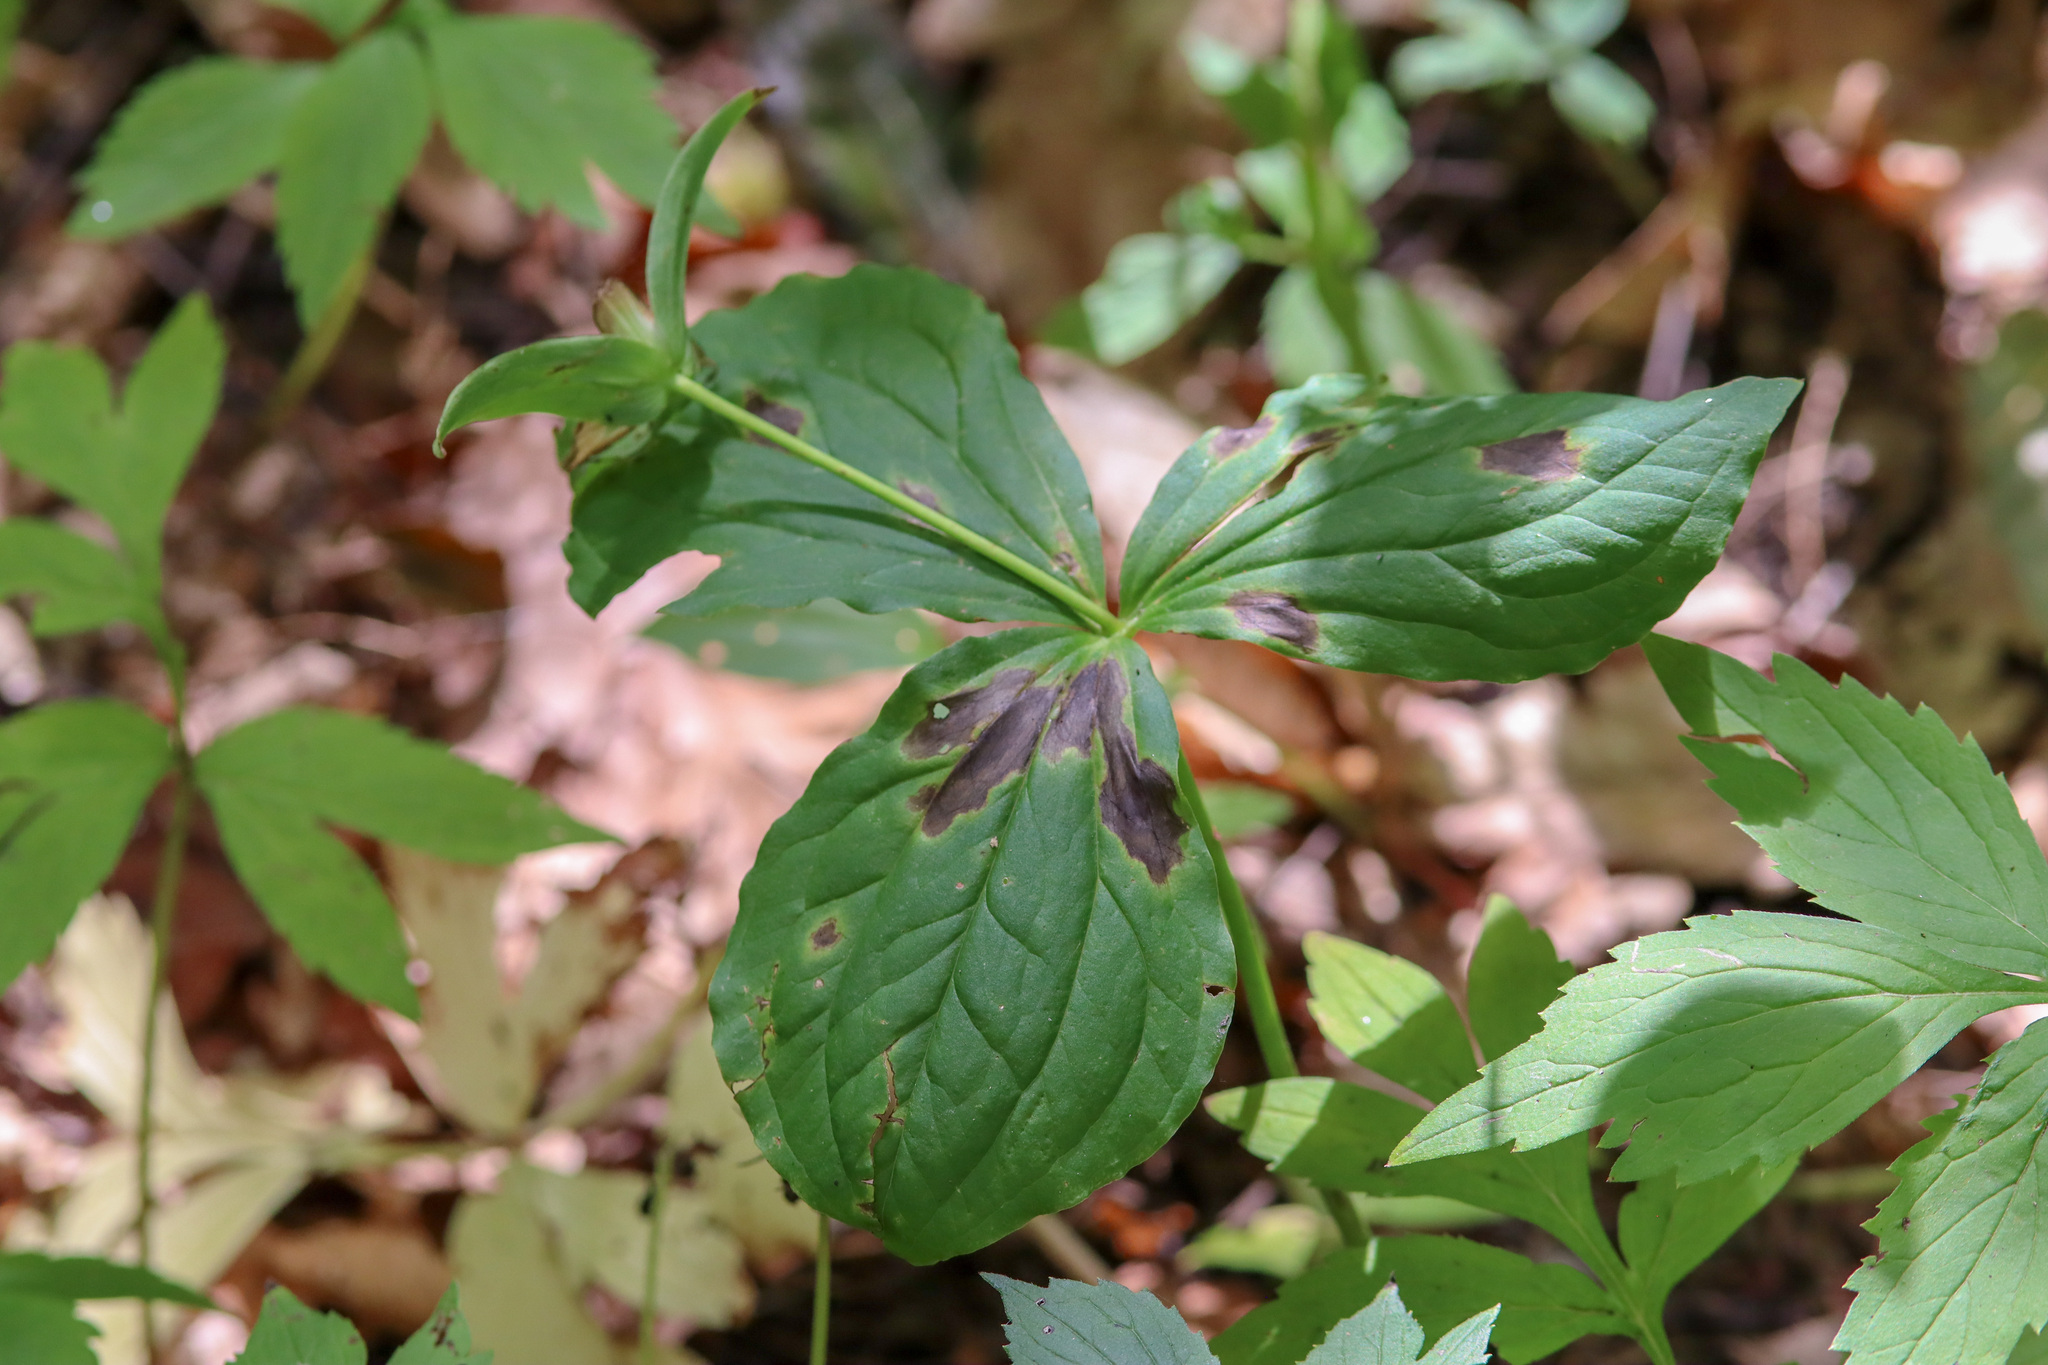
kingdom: Plantae
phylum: Tracheophyta
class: Liliopsida
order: Liliales
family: Melanthiaceae
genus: Trillium
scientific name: Trillium grandiflorum
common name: Great white trillium
